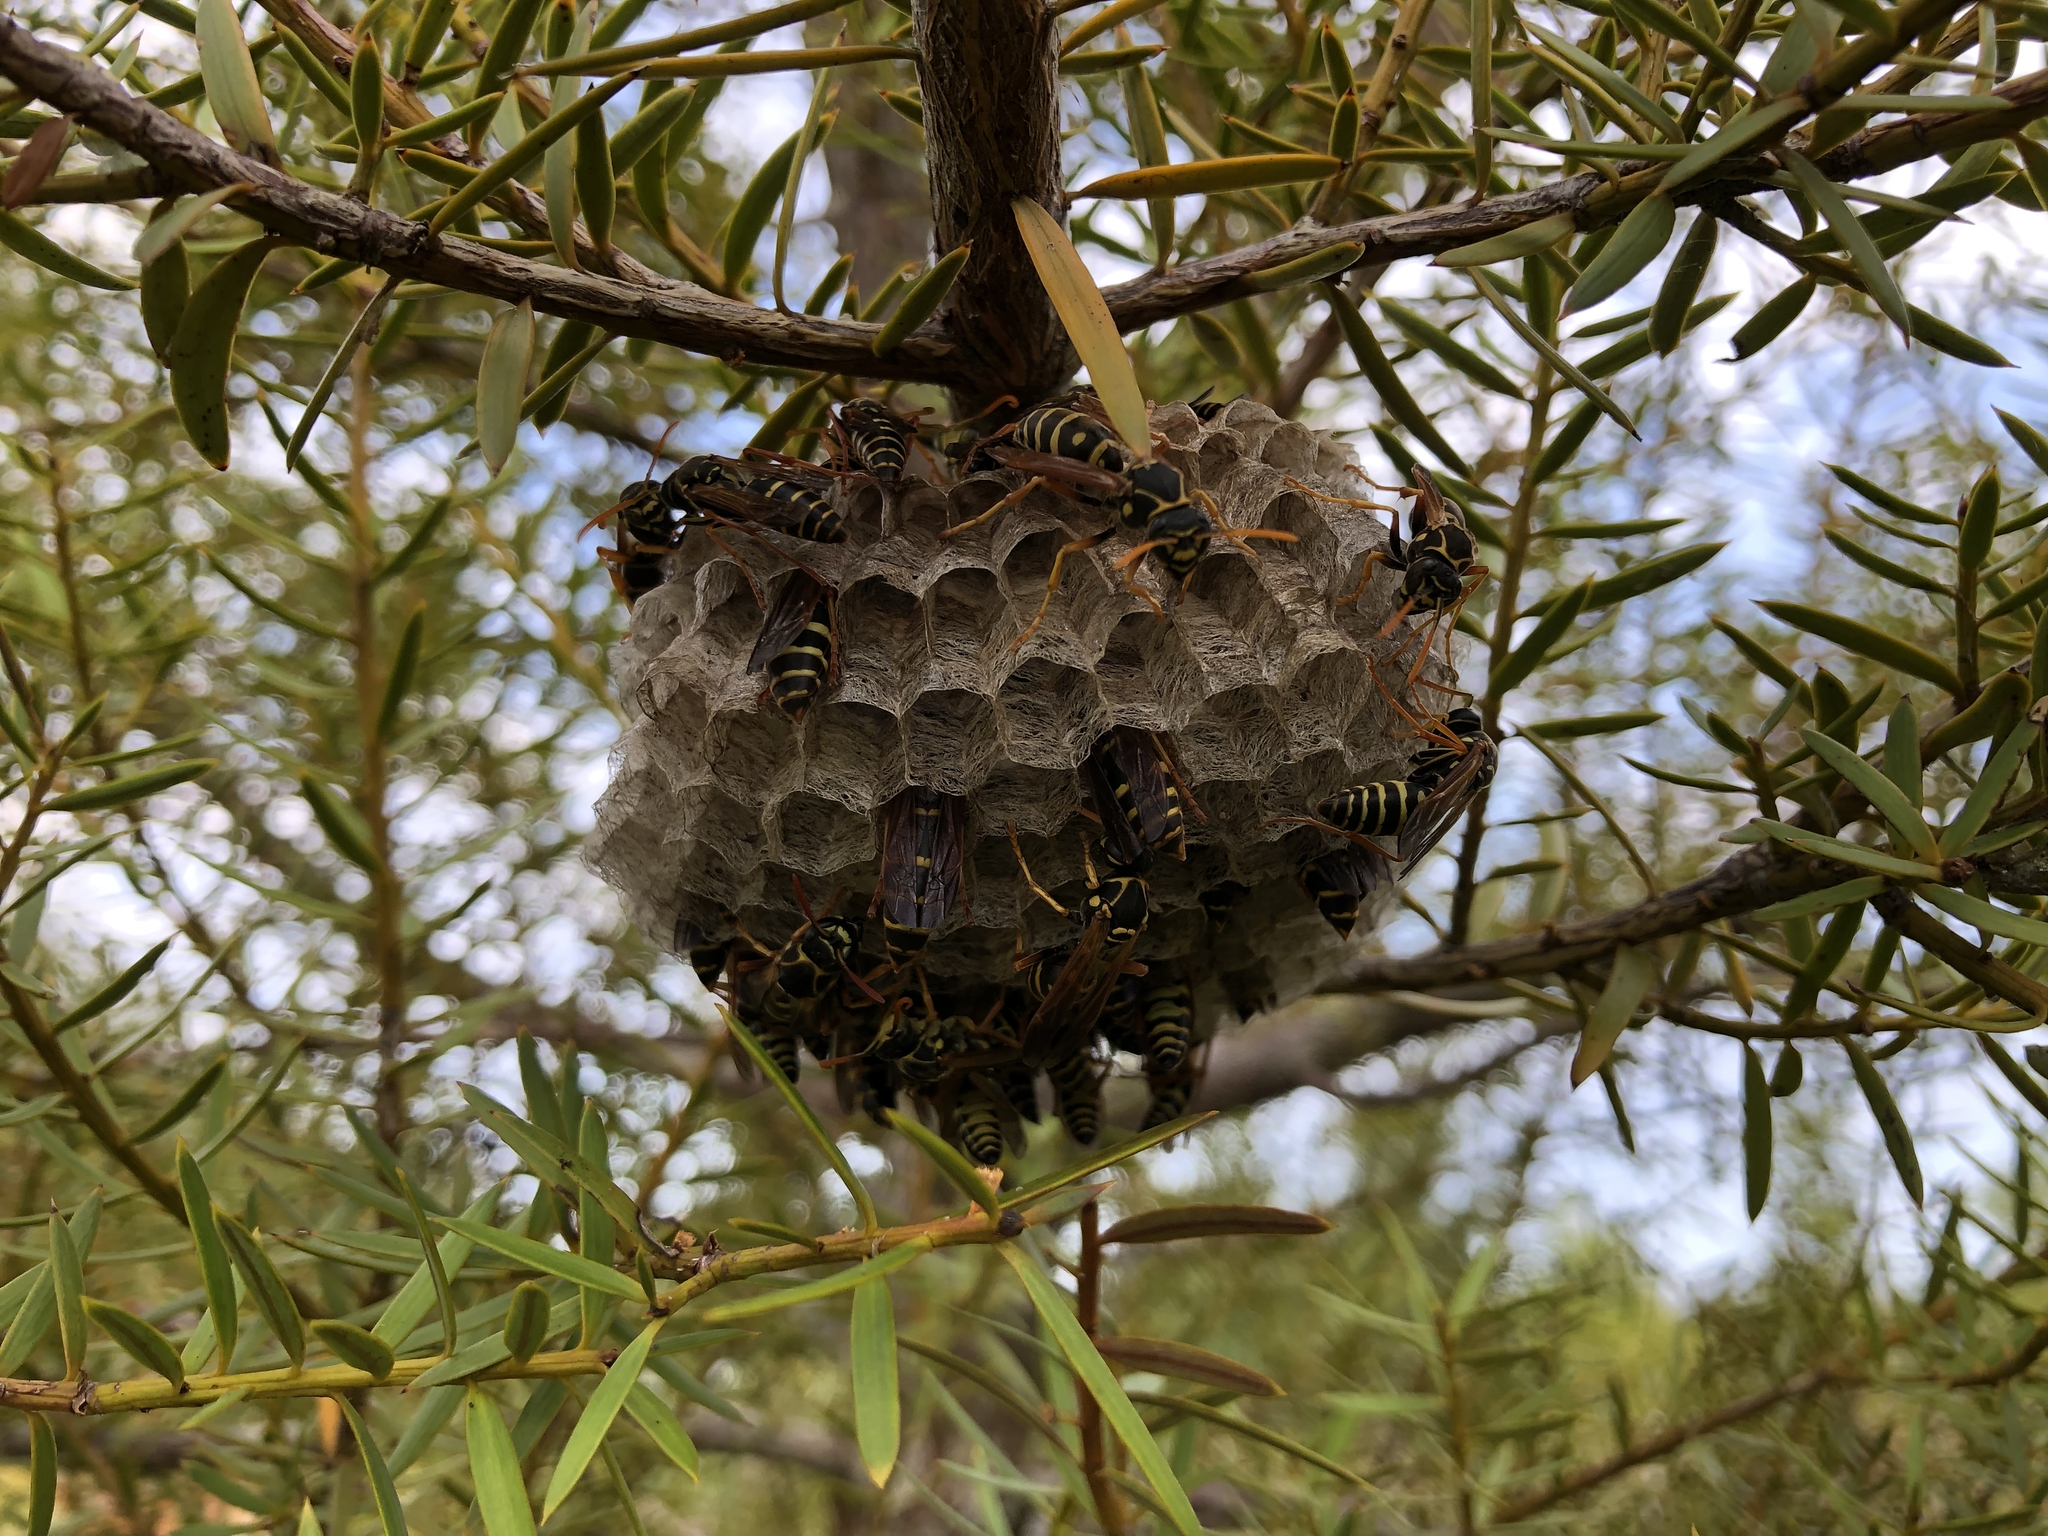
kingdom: Animalia
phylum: Arthropoda
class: Insecta
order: Hymenoptera
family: Eumenidae
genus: Polistes
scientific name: Polistes chinensis
